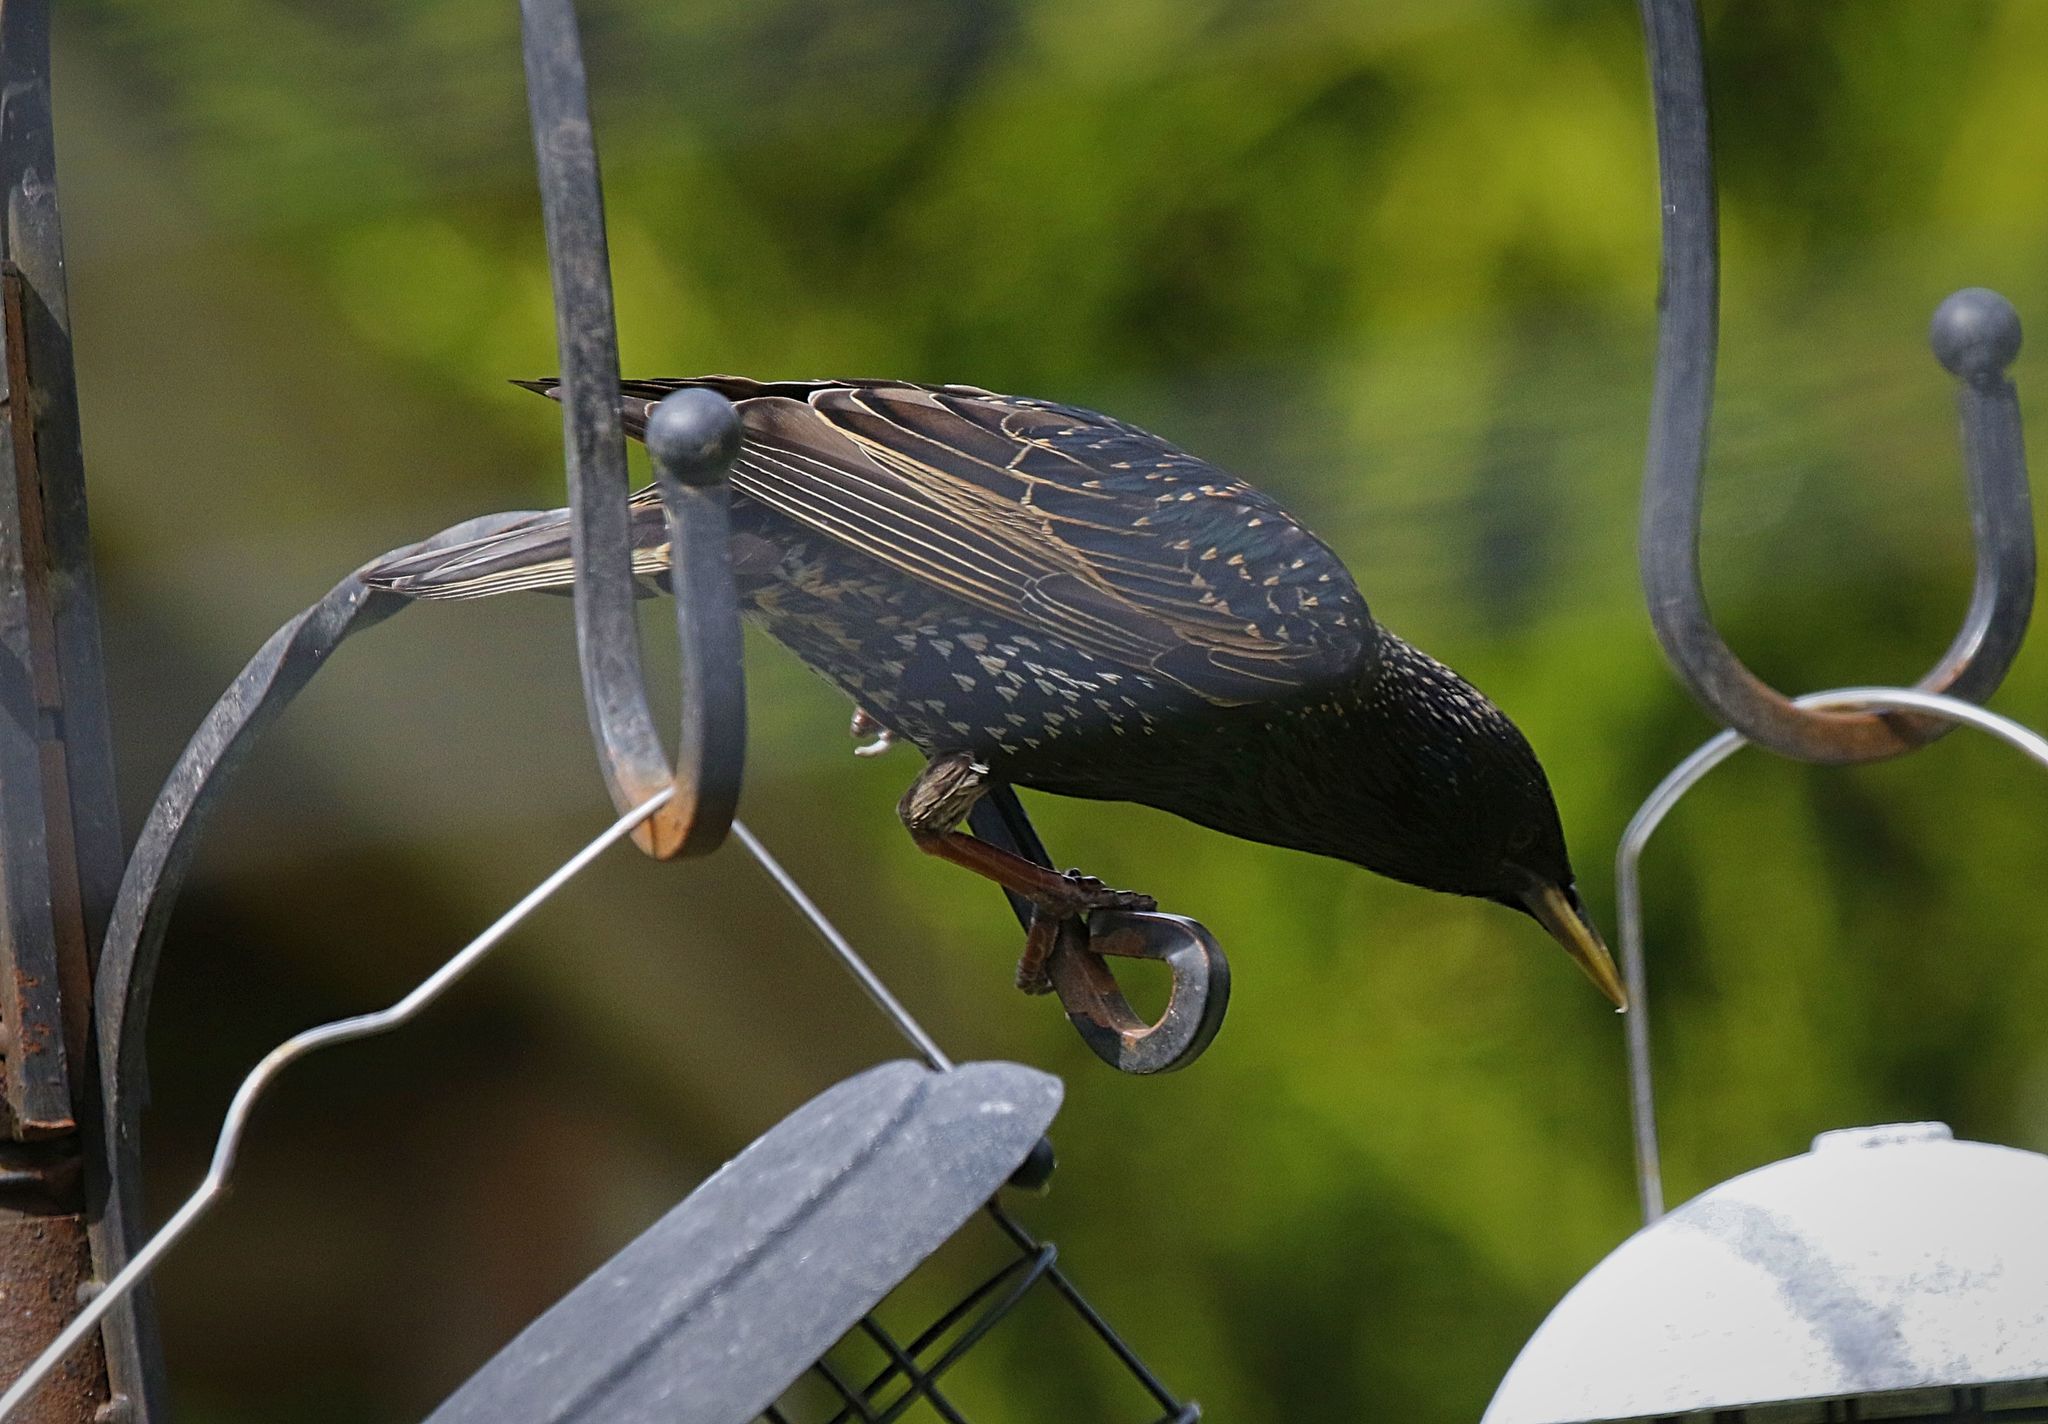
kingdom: Animalia
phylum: Chordata
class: Aves
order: Passeriformes
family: Sturnidae
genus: Sturnus
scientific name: Sturnus vulgaris
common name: Common starling
